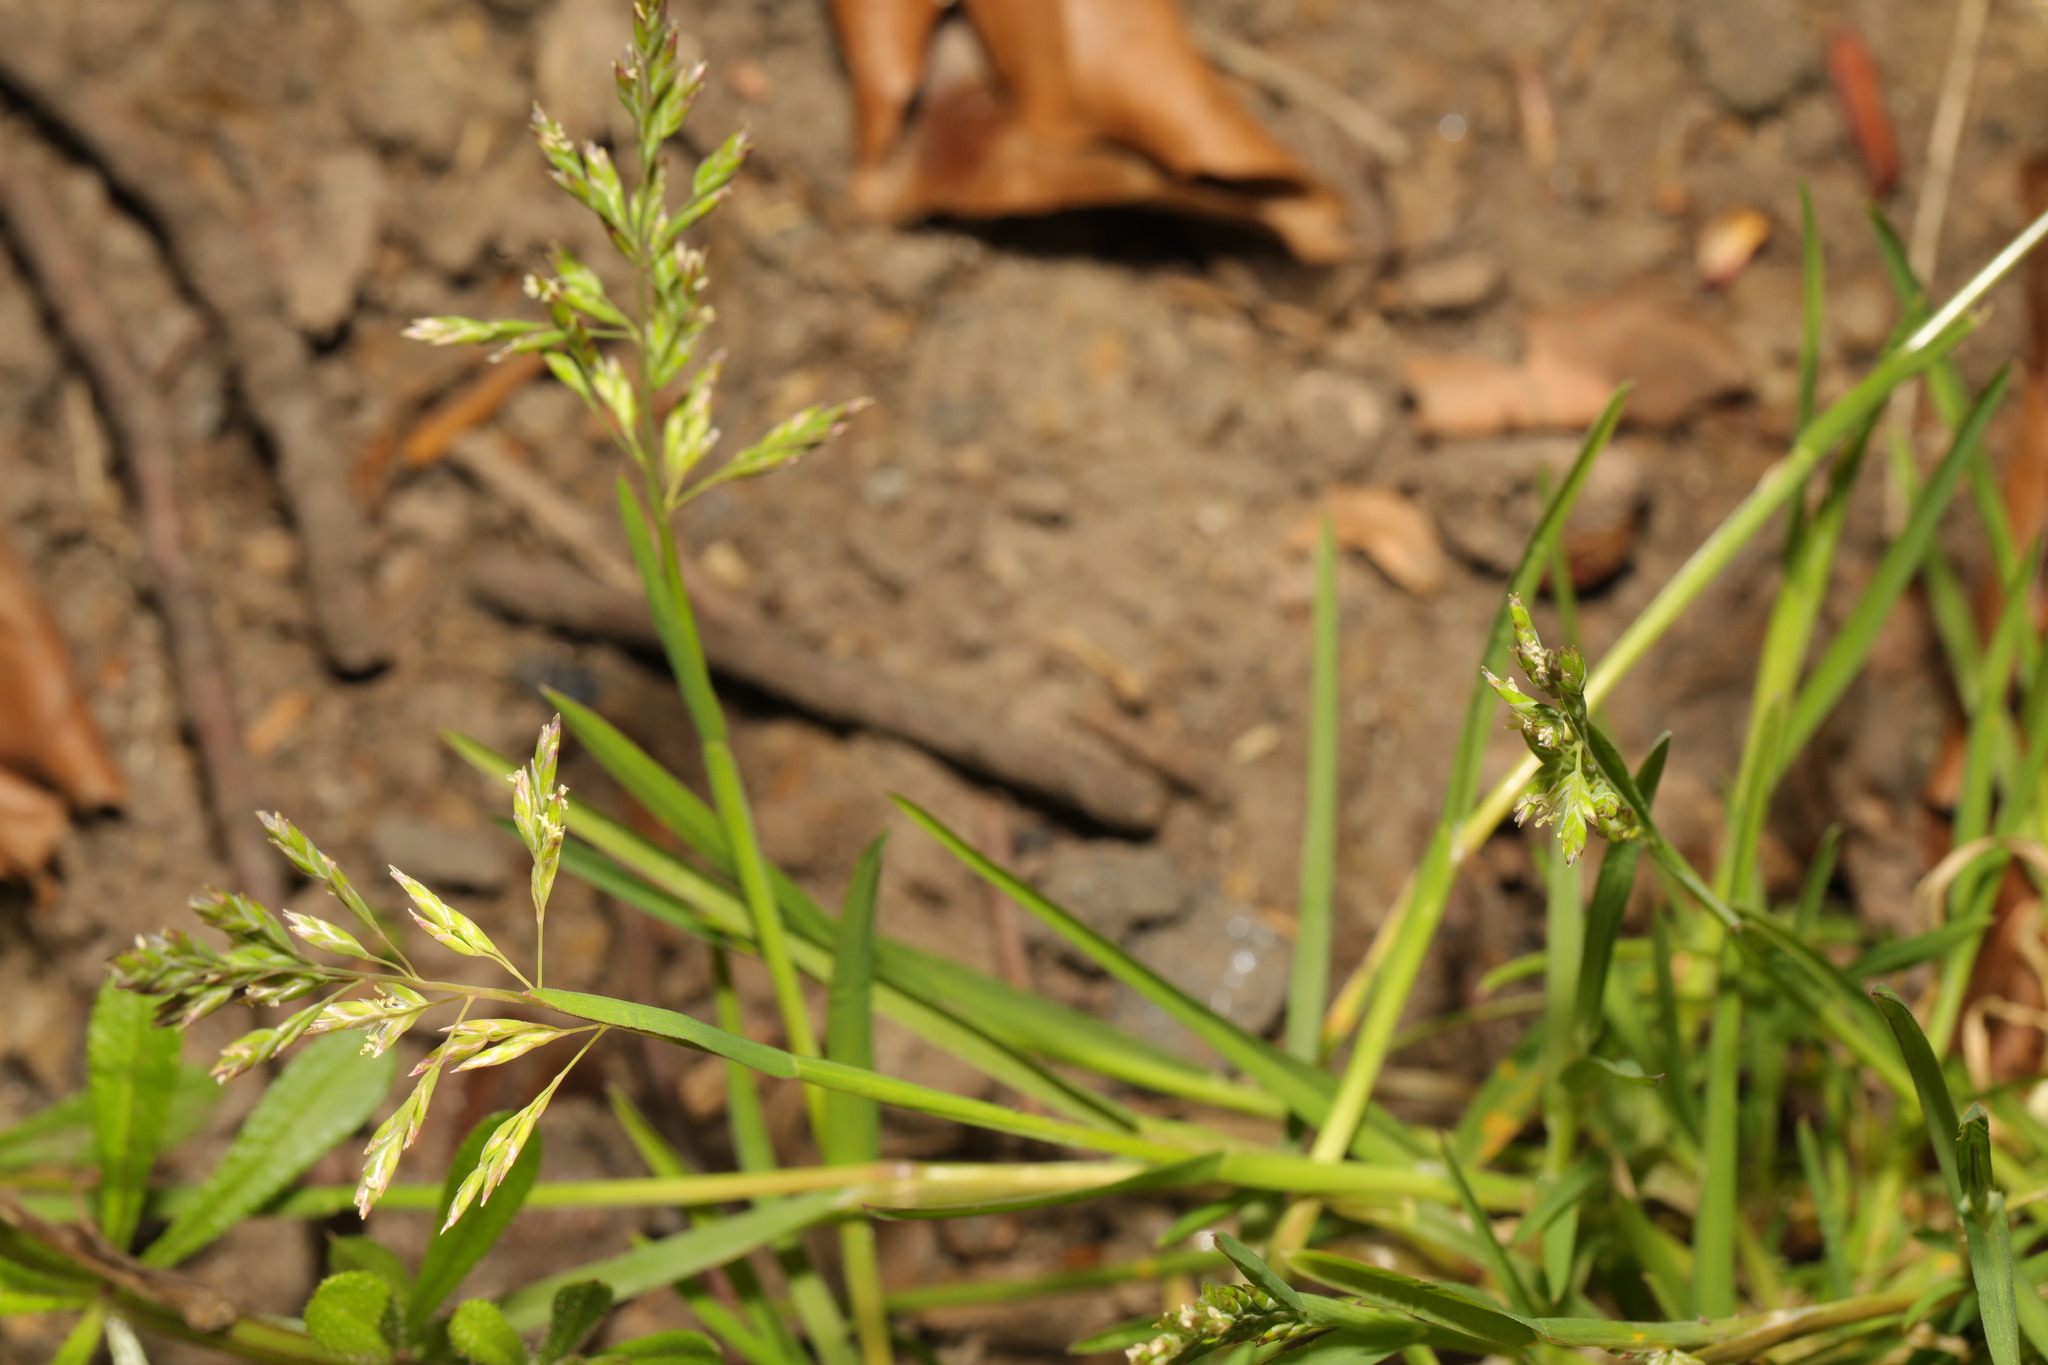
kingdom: Plantae
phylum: Tracheophyta
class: Liliopsida
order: Poales
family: Poaceae
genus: Poa
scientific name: Poa annua
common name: Annual bluegrass
